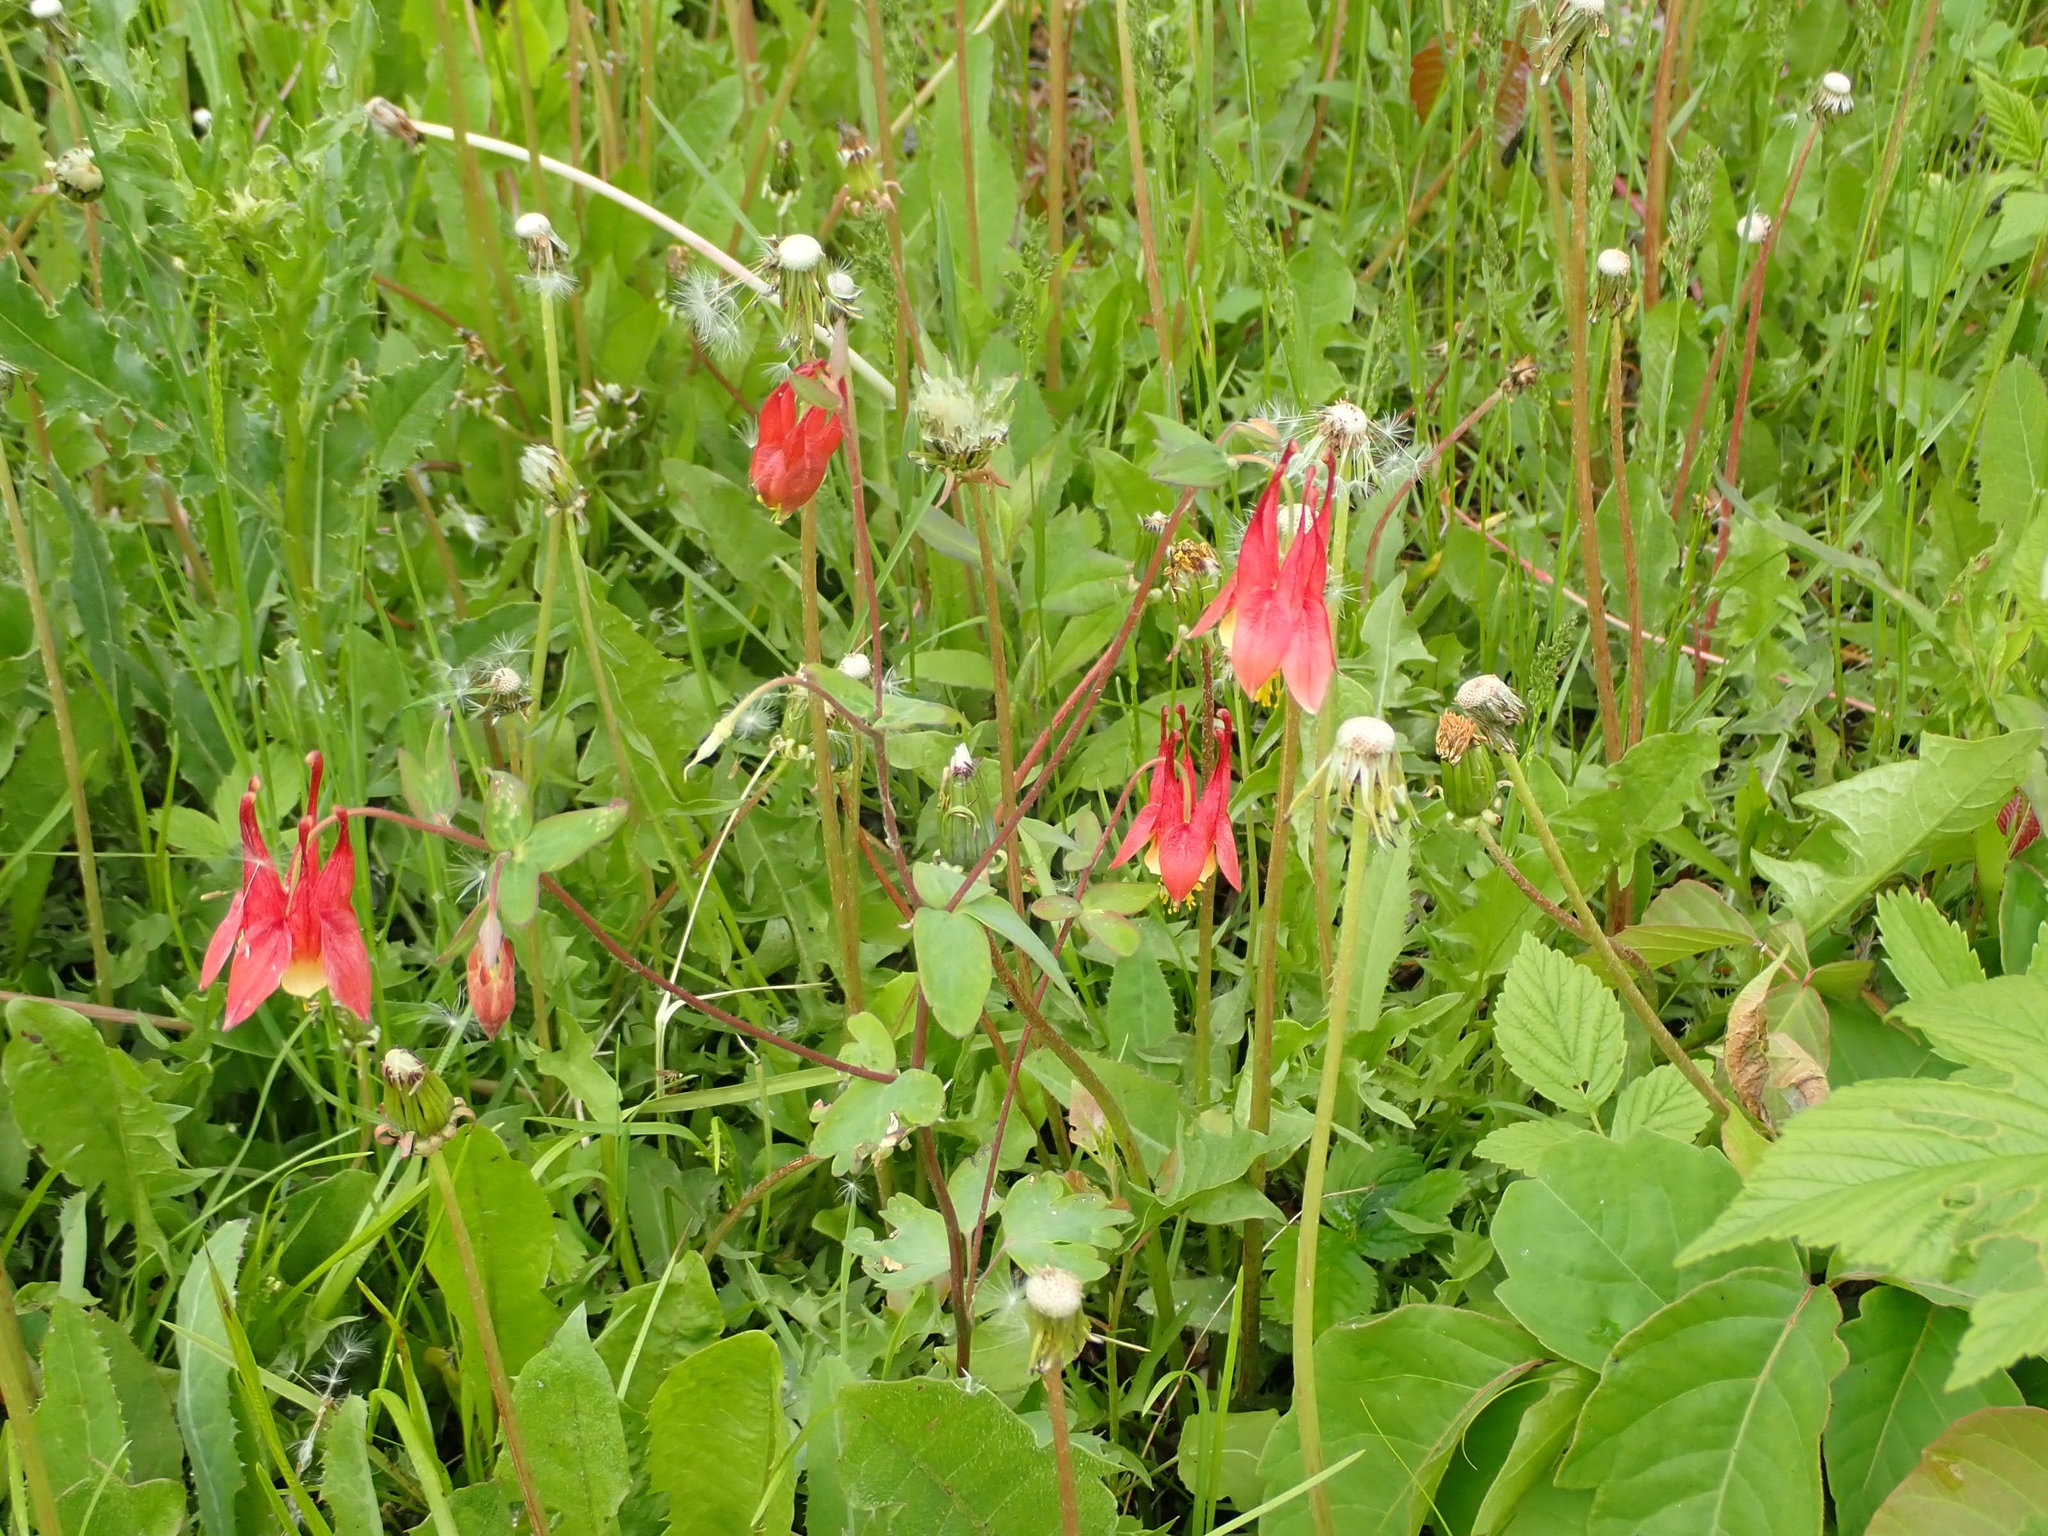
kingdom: Plantae
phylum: Tracheophyta
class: Magnoliopsida
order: Ranunculales
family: Ranunculaceae
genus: Aquilegia
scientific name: Aquilegia canadensis
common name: American columbine
